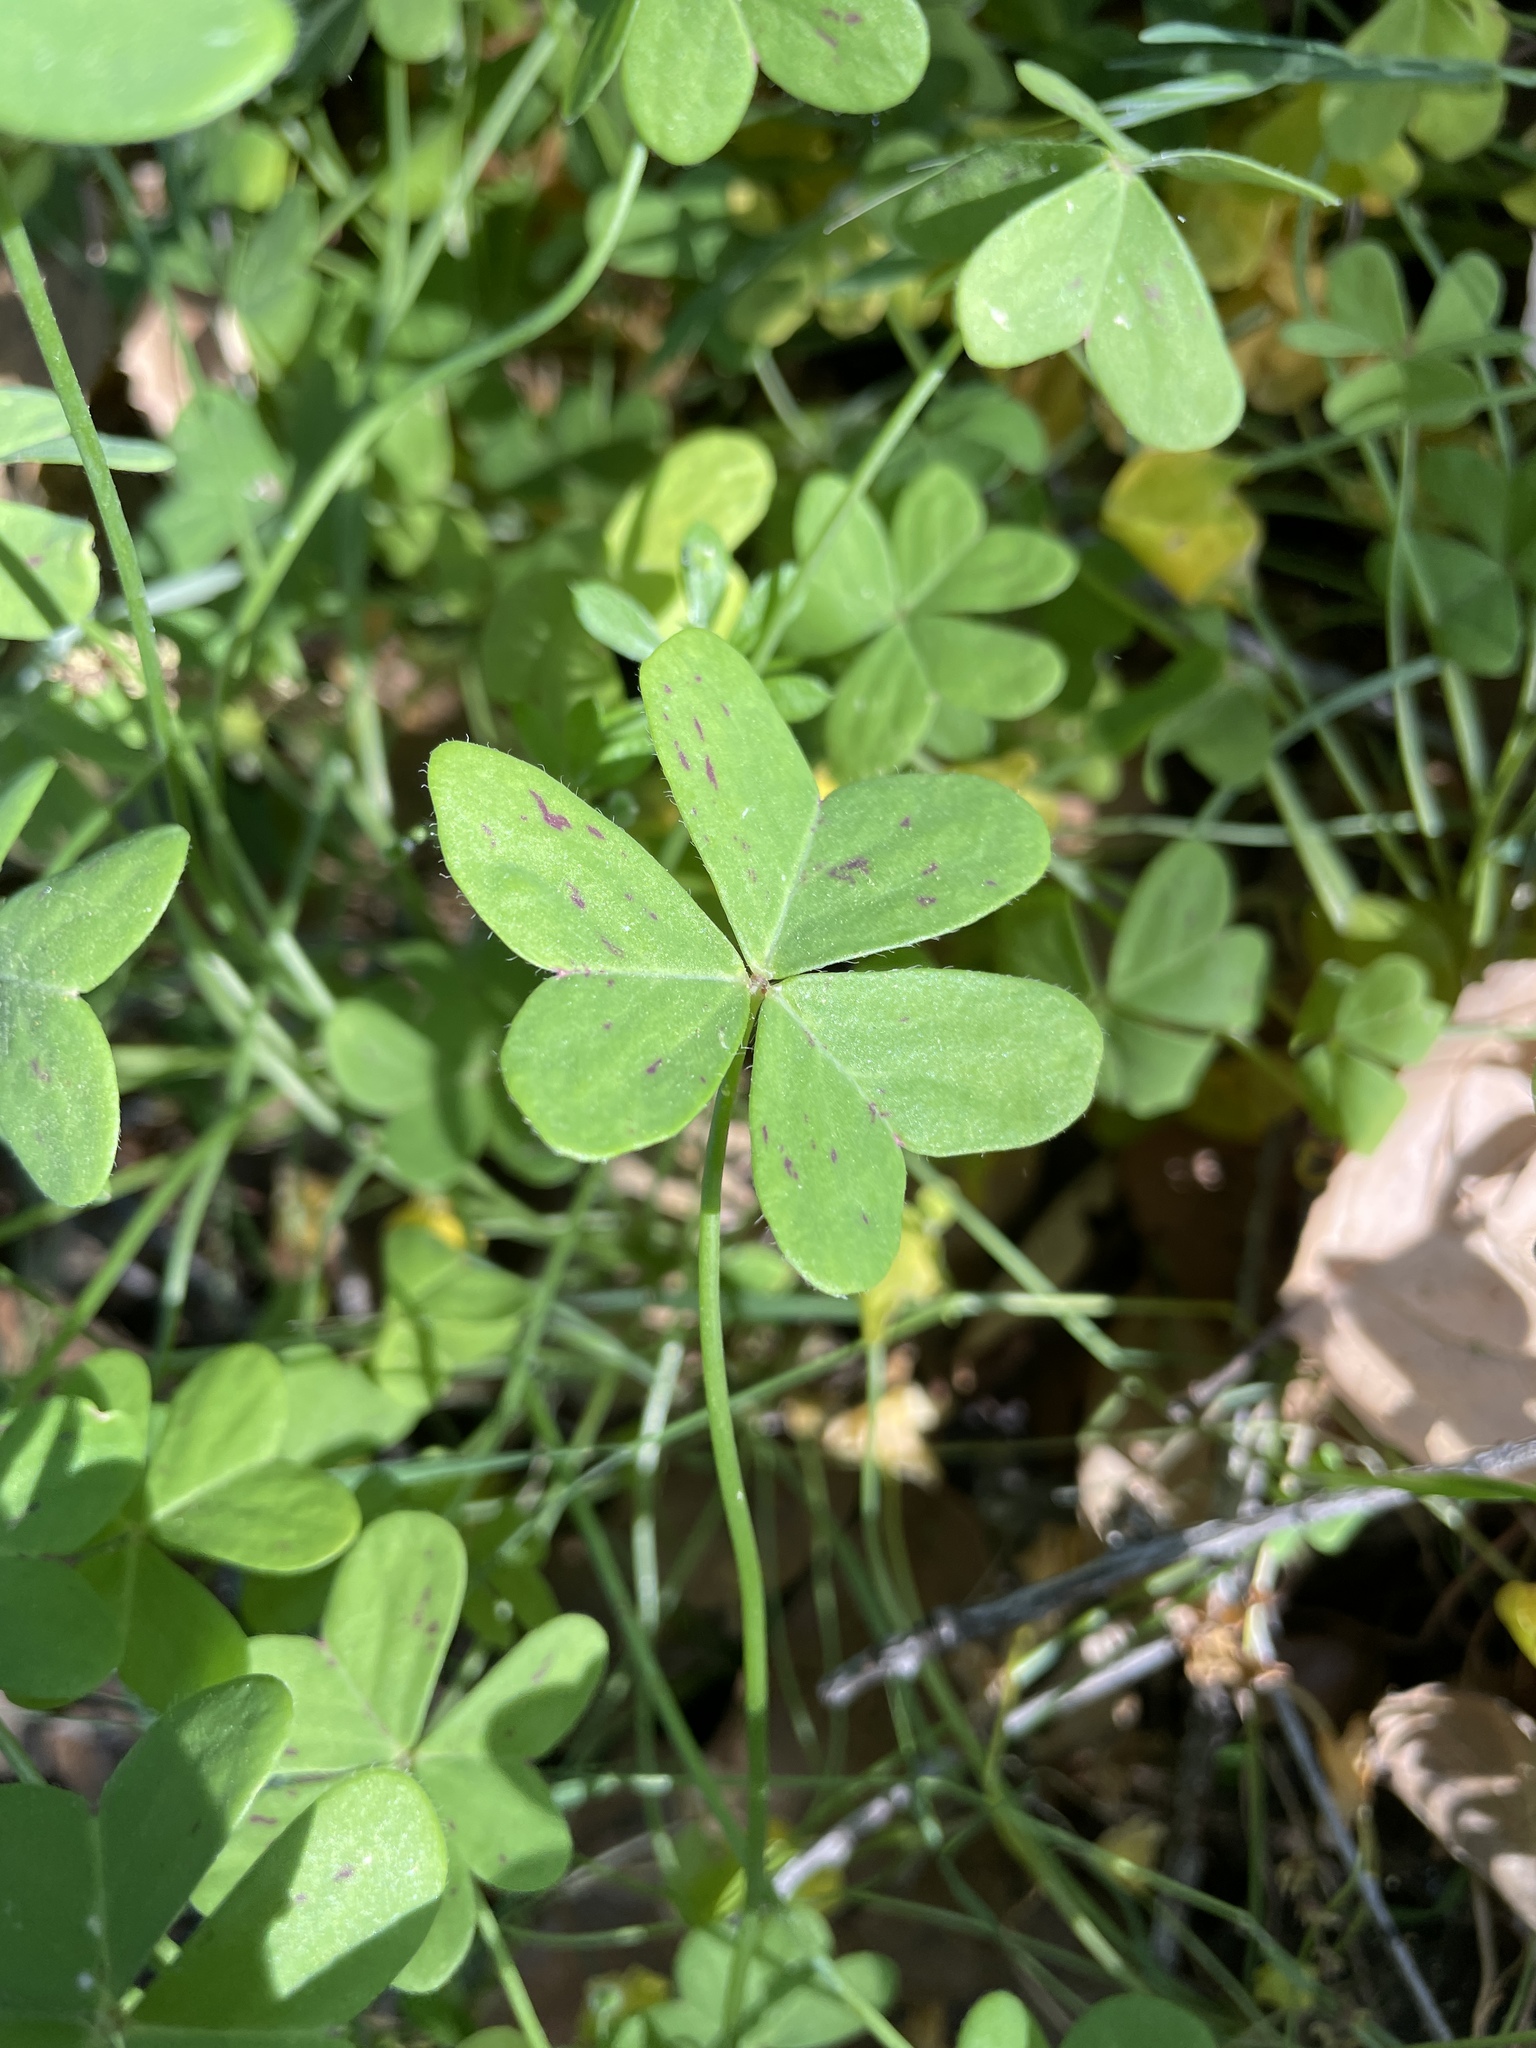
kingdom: Plantae
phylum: Tracheophyta
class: Magnoliopsida
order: Oxalidales
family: Oxalidaceae
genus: Oxalis
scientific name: Oxalis pes-caprae
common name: Bermuda-buttercup
